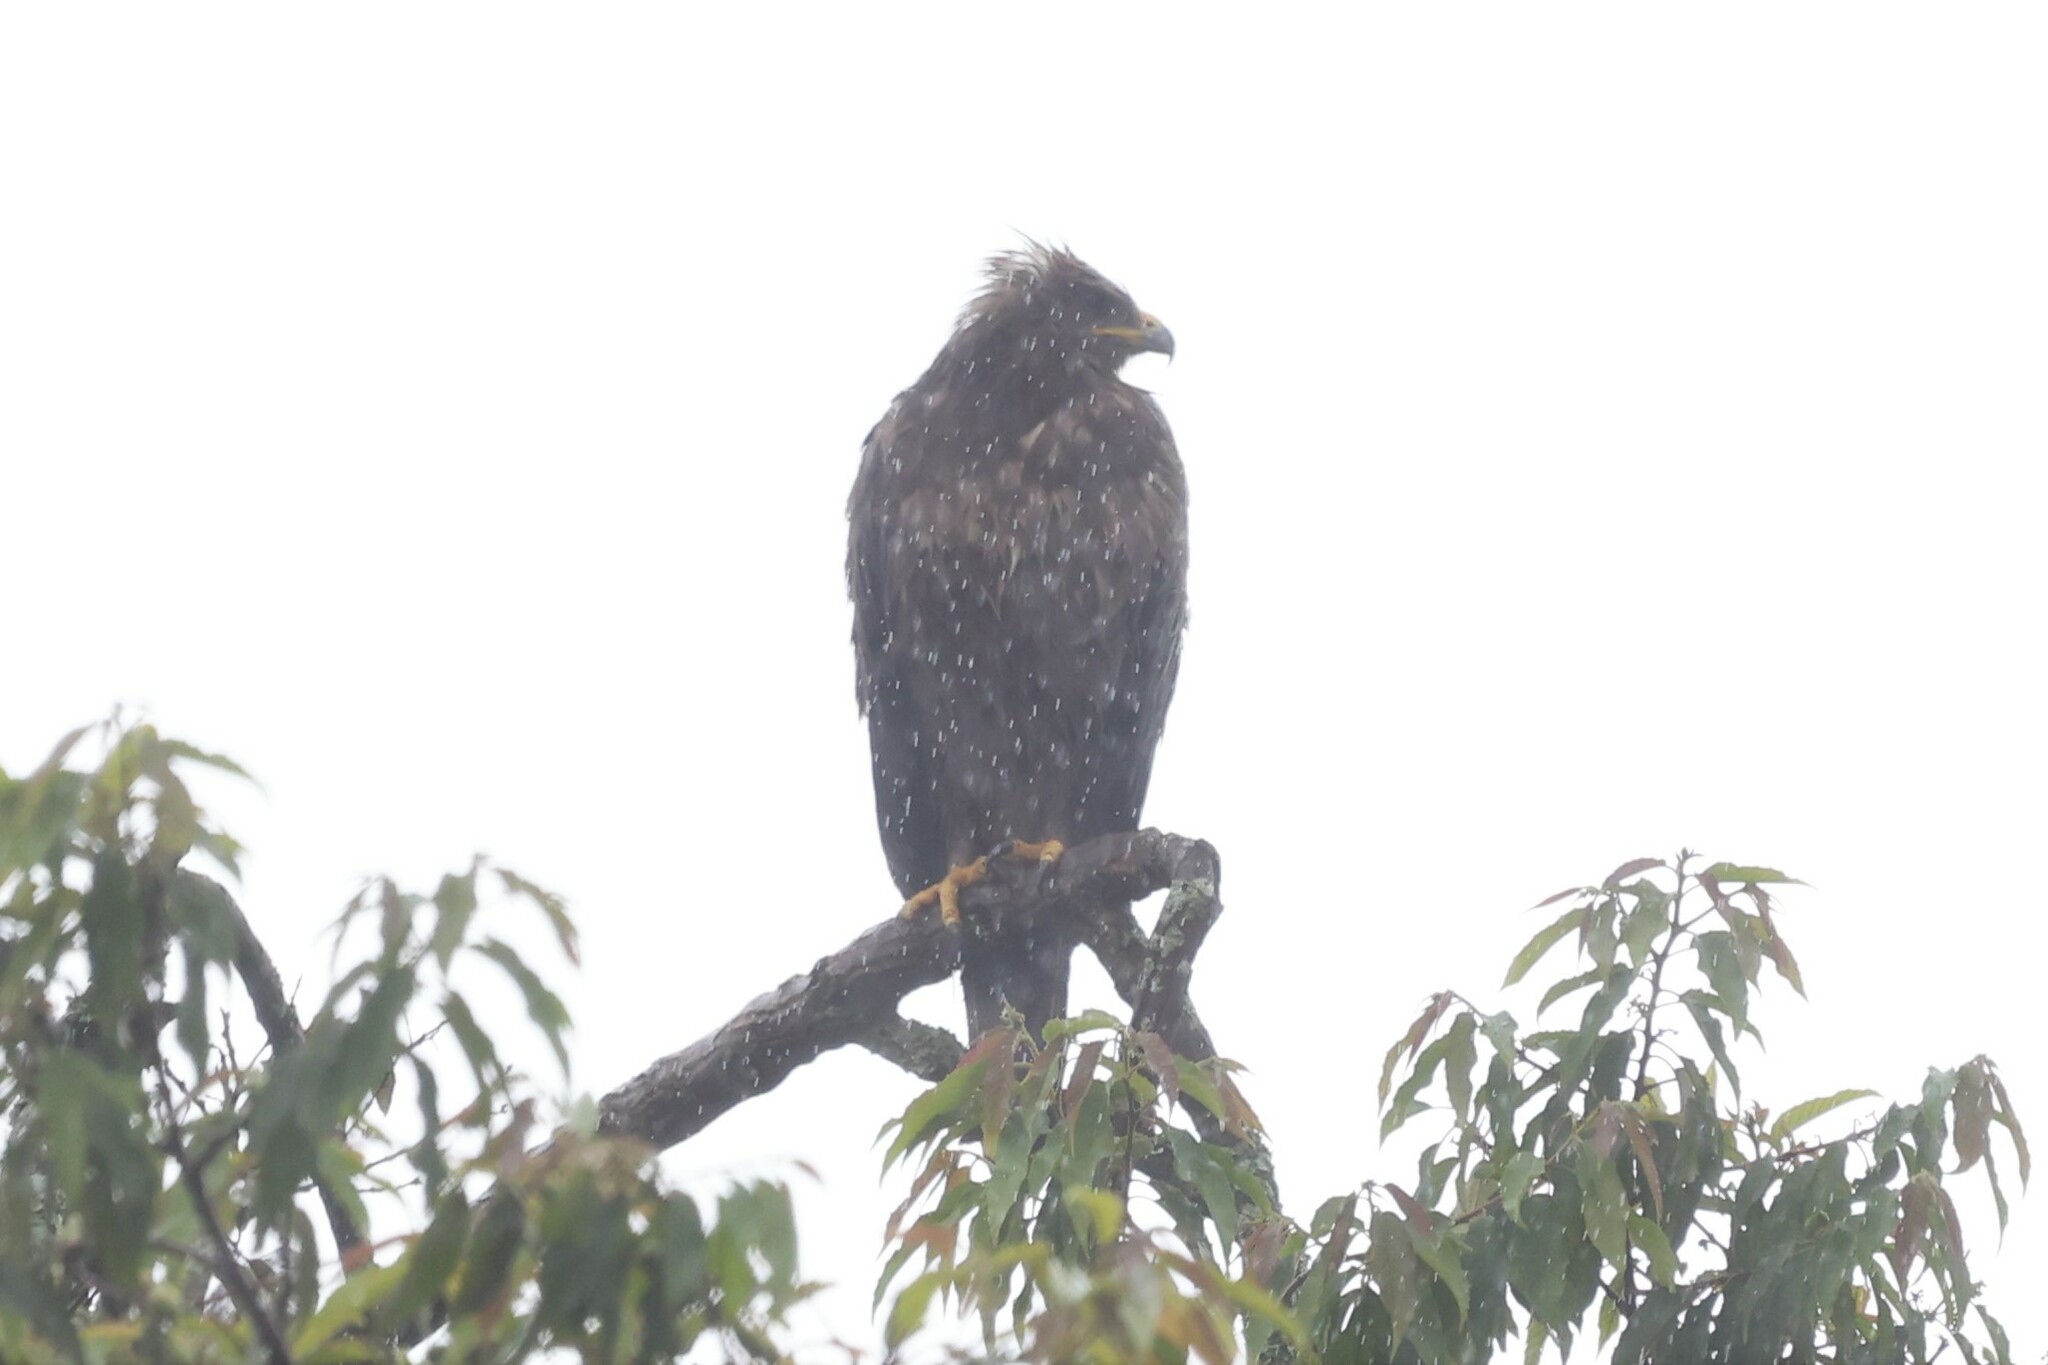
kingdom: Animalia
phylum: Chordata
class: Aves
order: Accipitriformes
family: Accipitridae
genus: Hieraaetus
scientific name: Hieraaetus wahlbergi
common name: Wahlberg's eagle
